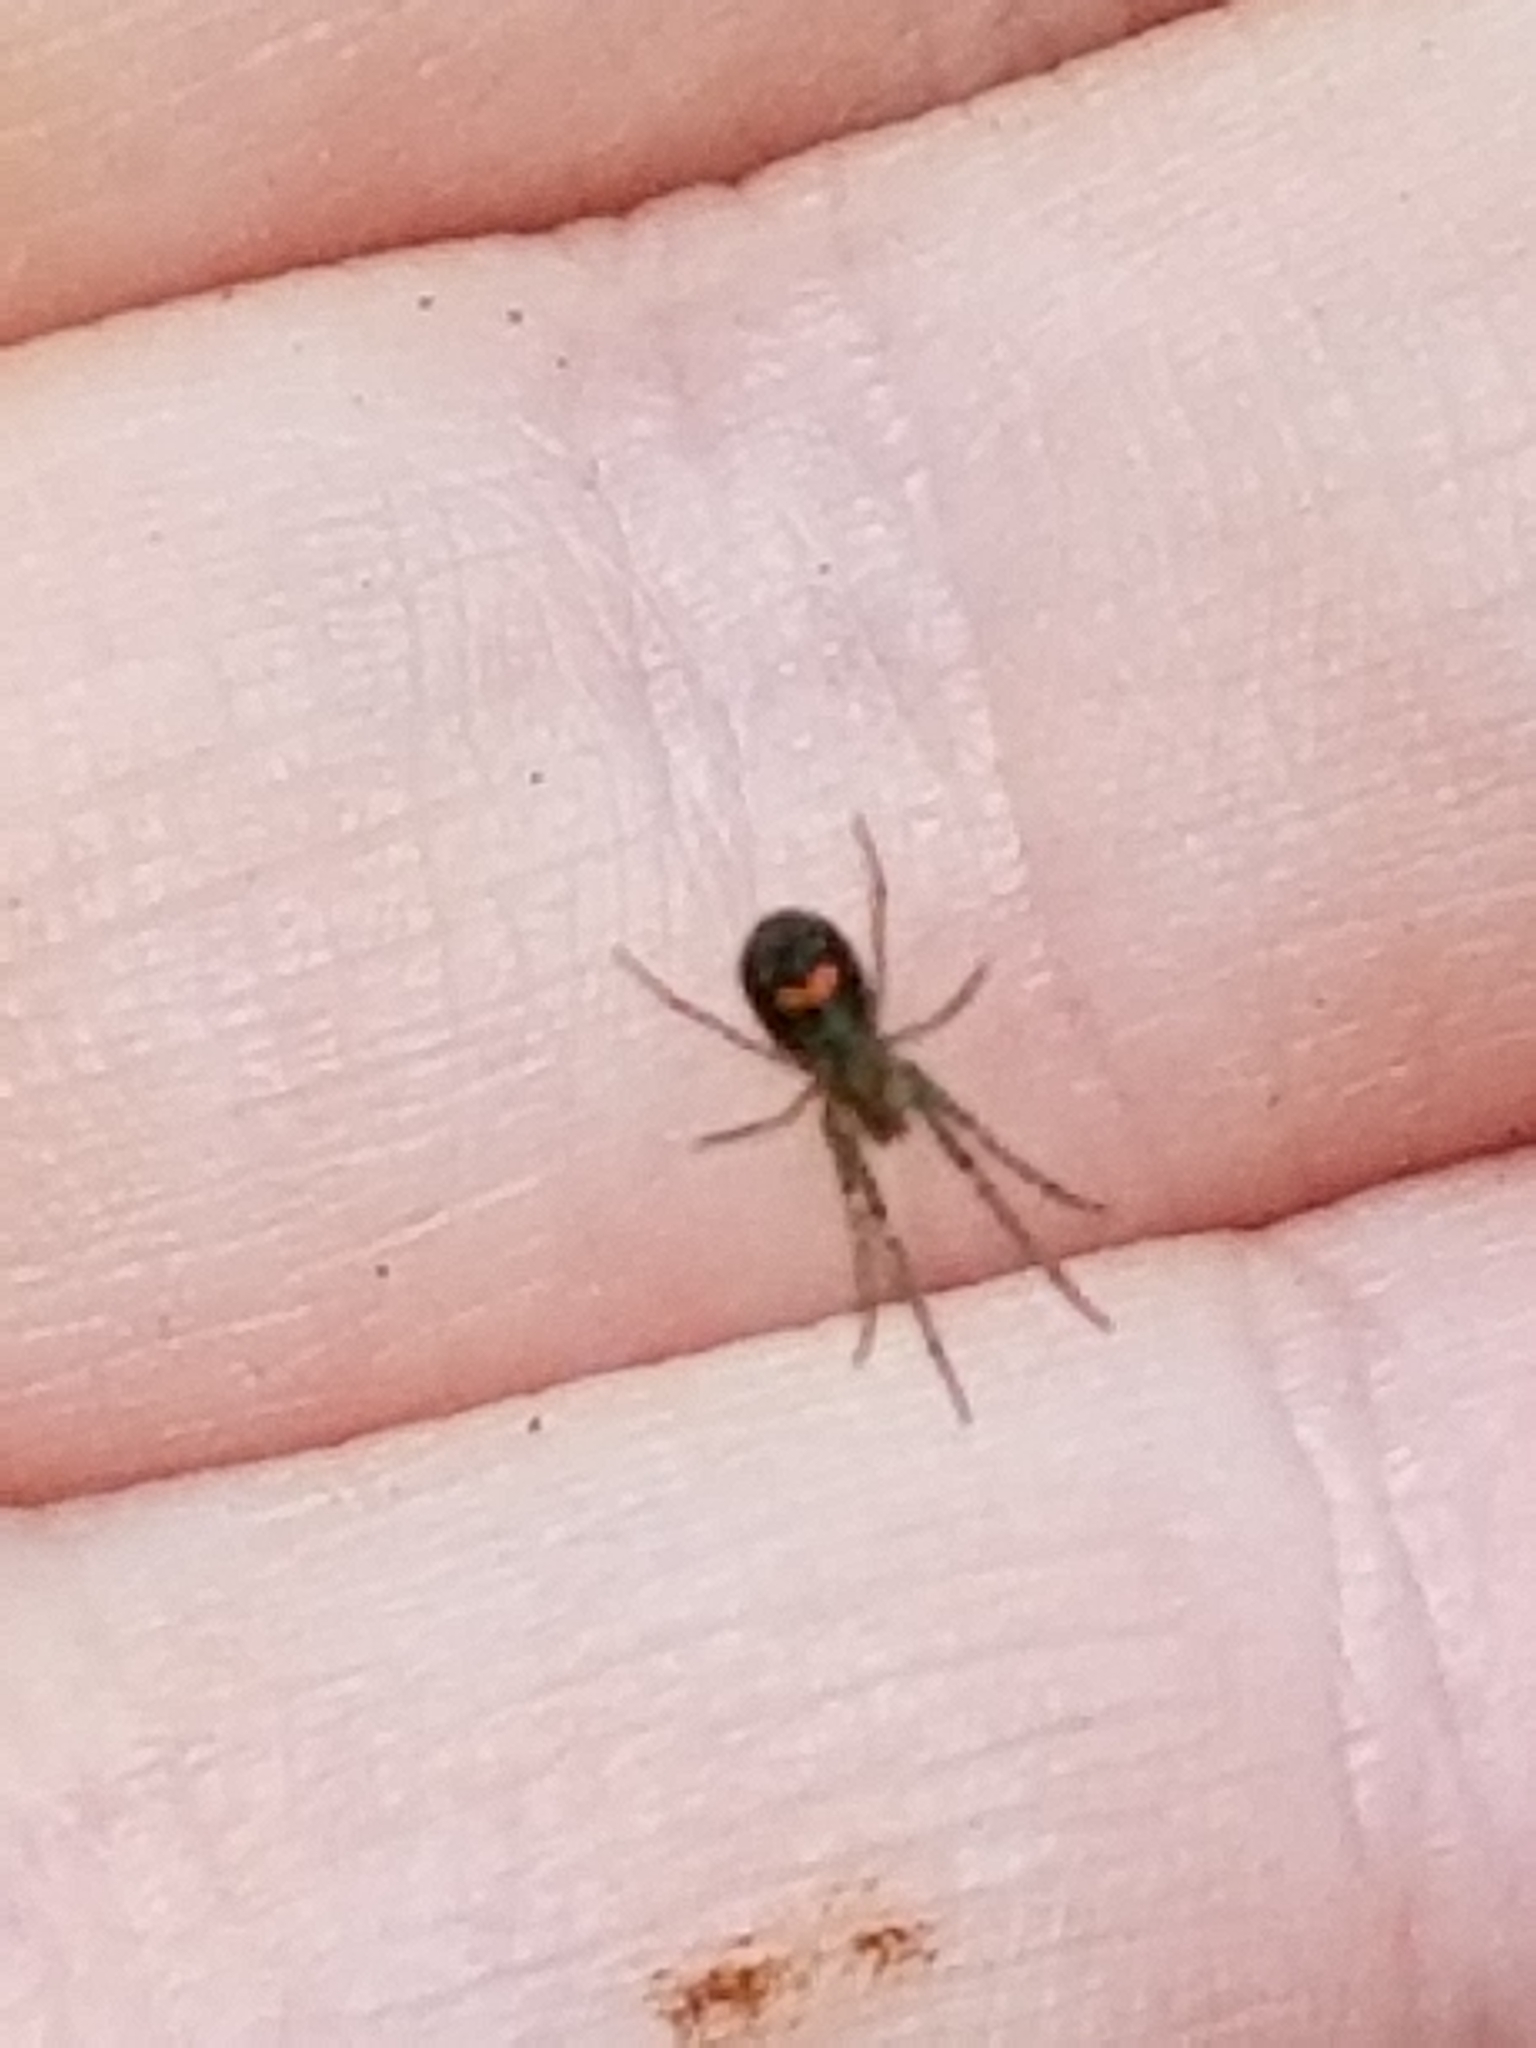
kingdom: Animalia
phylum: Arthropoda
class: Arachnida
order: Araneae
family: Tetragnathidae
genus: Leucauge
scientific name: Leucauge venusta
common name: Longjawed orb weavers
